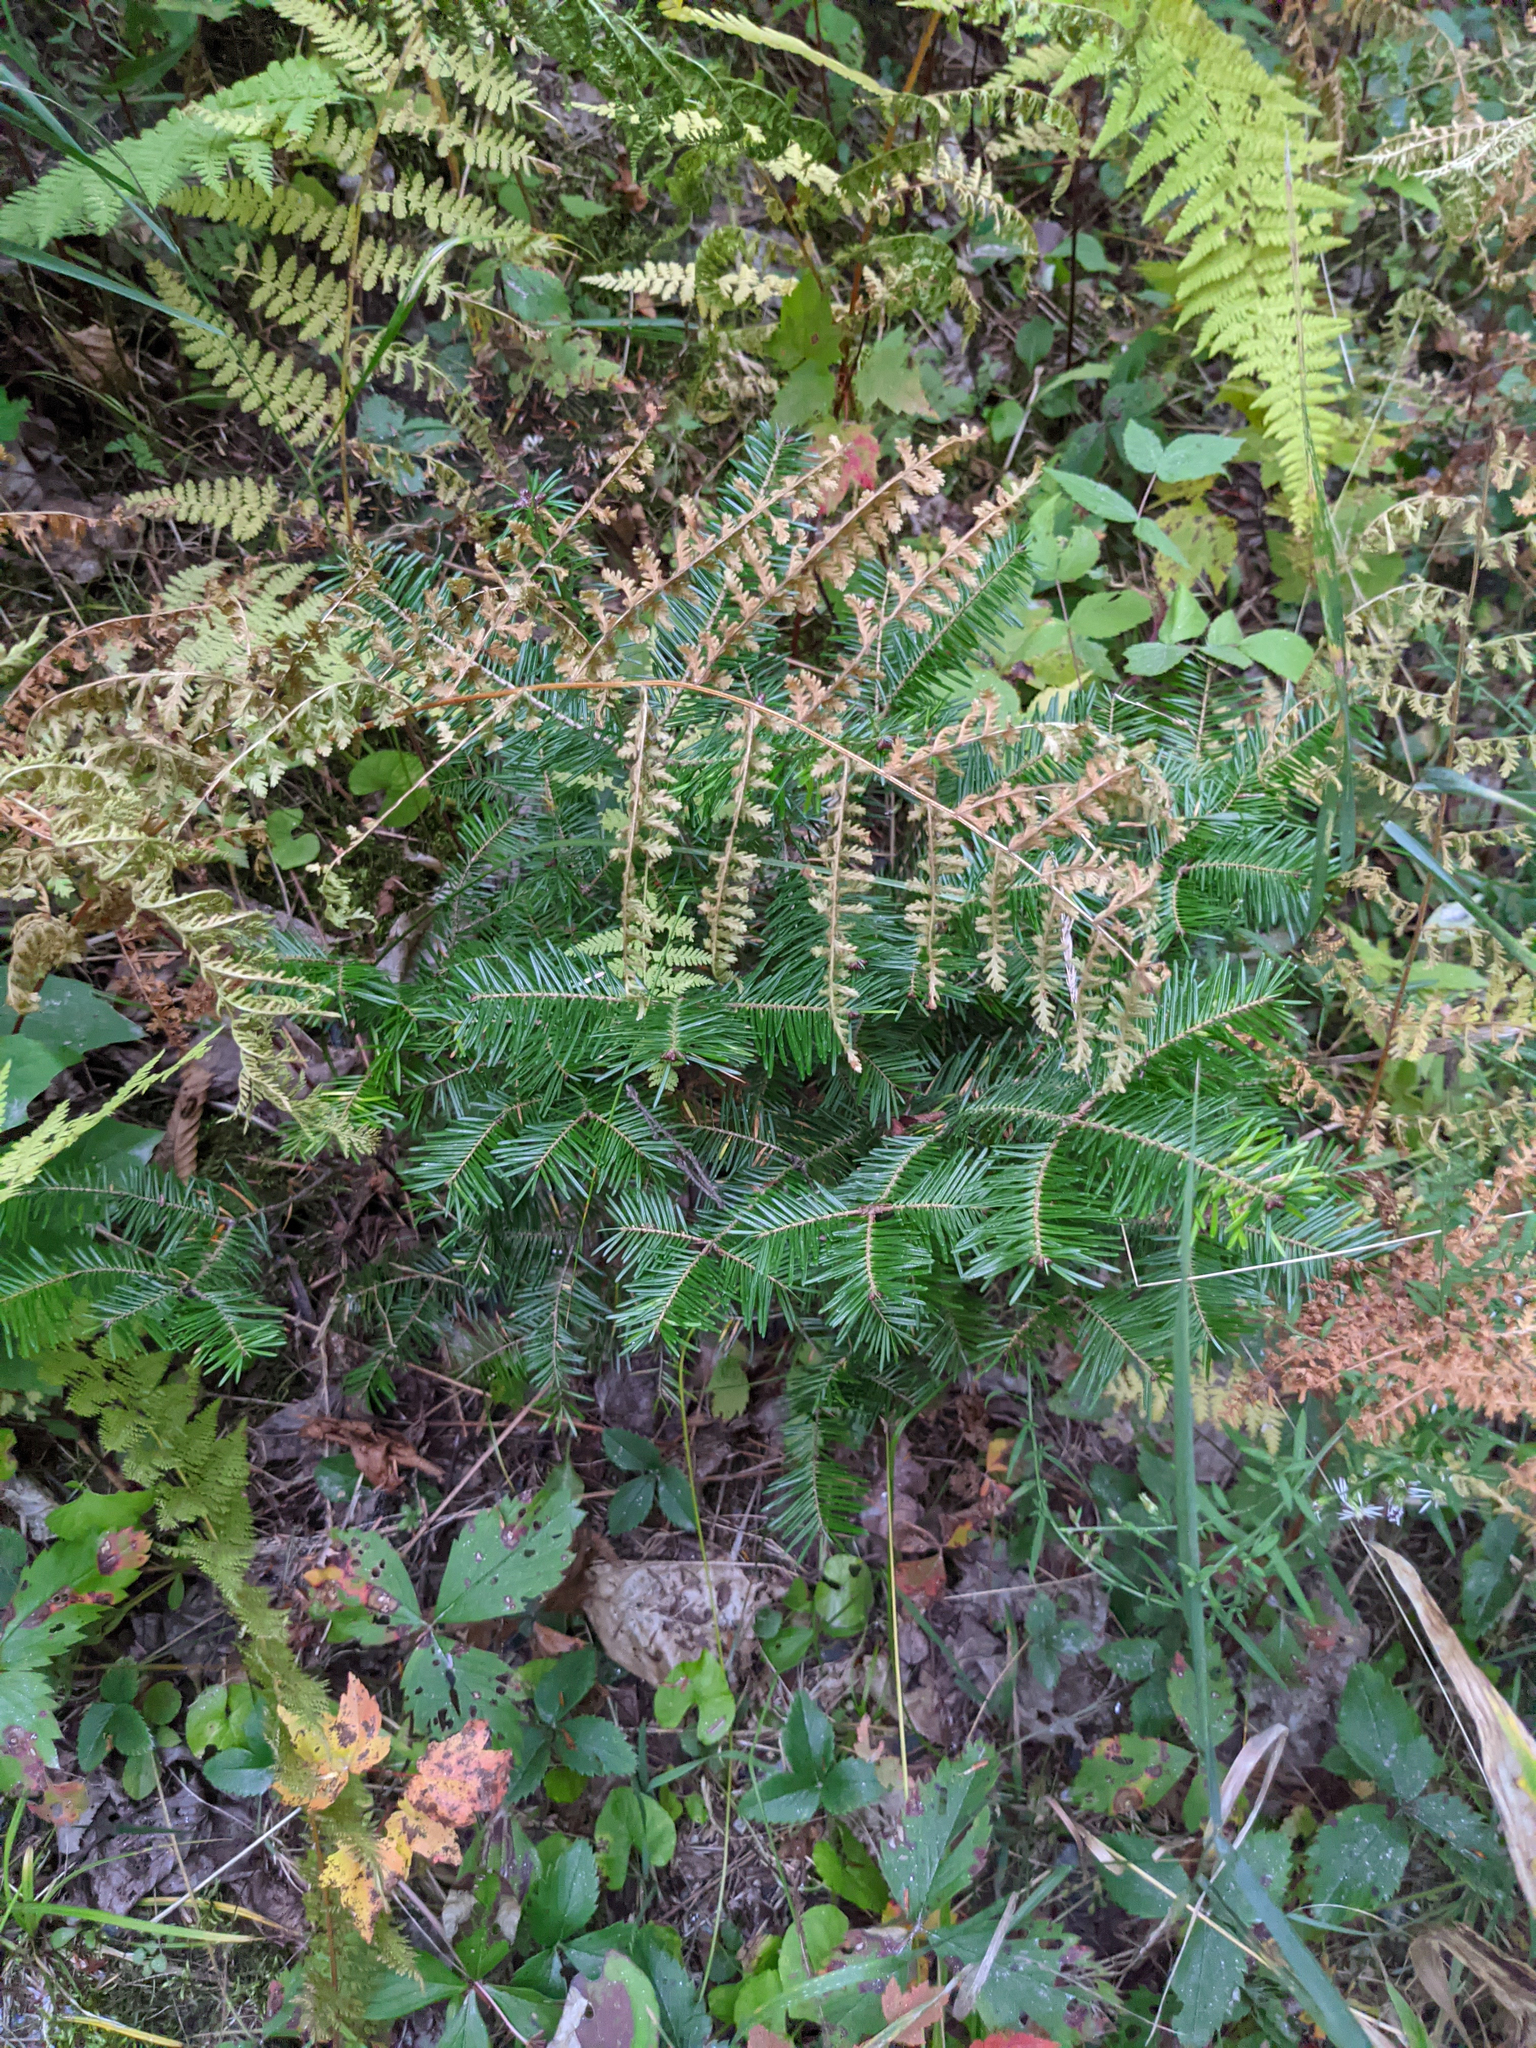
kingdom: Plantae
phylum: Tracheophyta
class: Pinopsida
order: Pinales
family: Pinaceae
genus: Abies
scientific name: Abies balsamea
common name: Balsam fir
